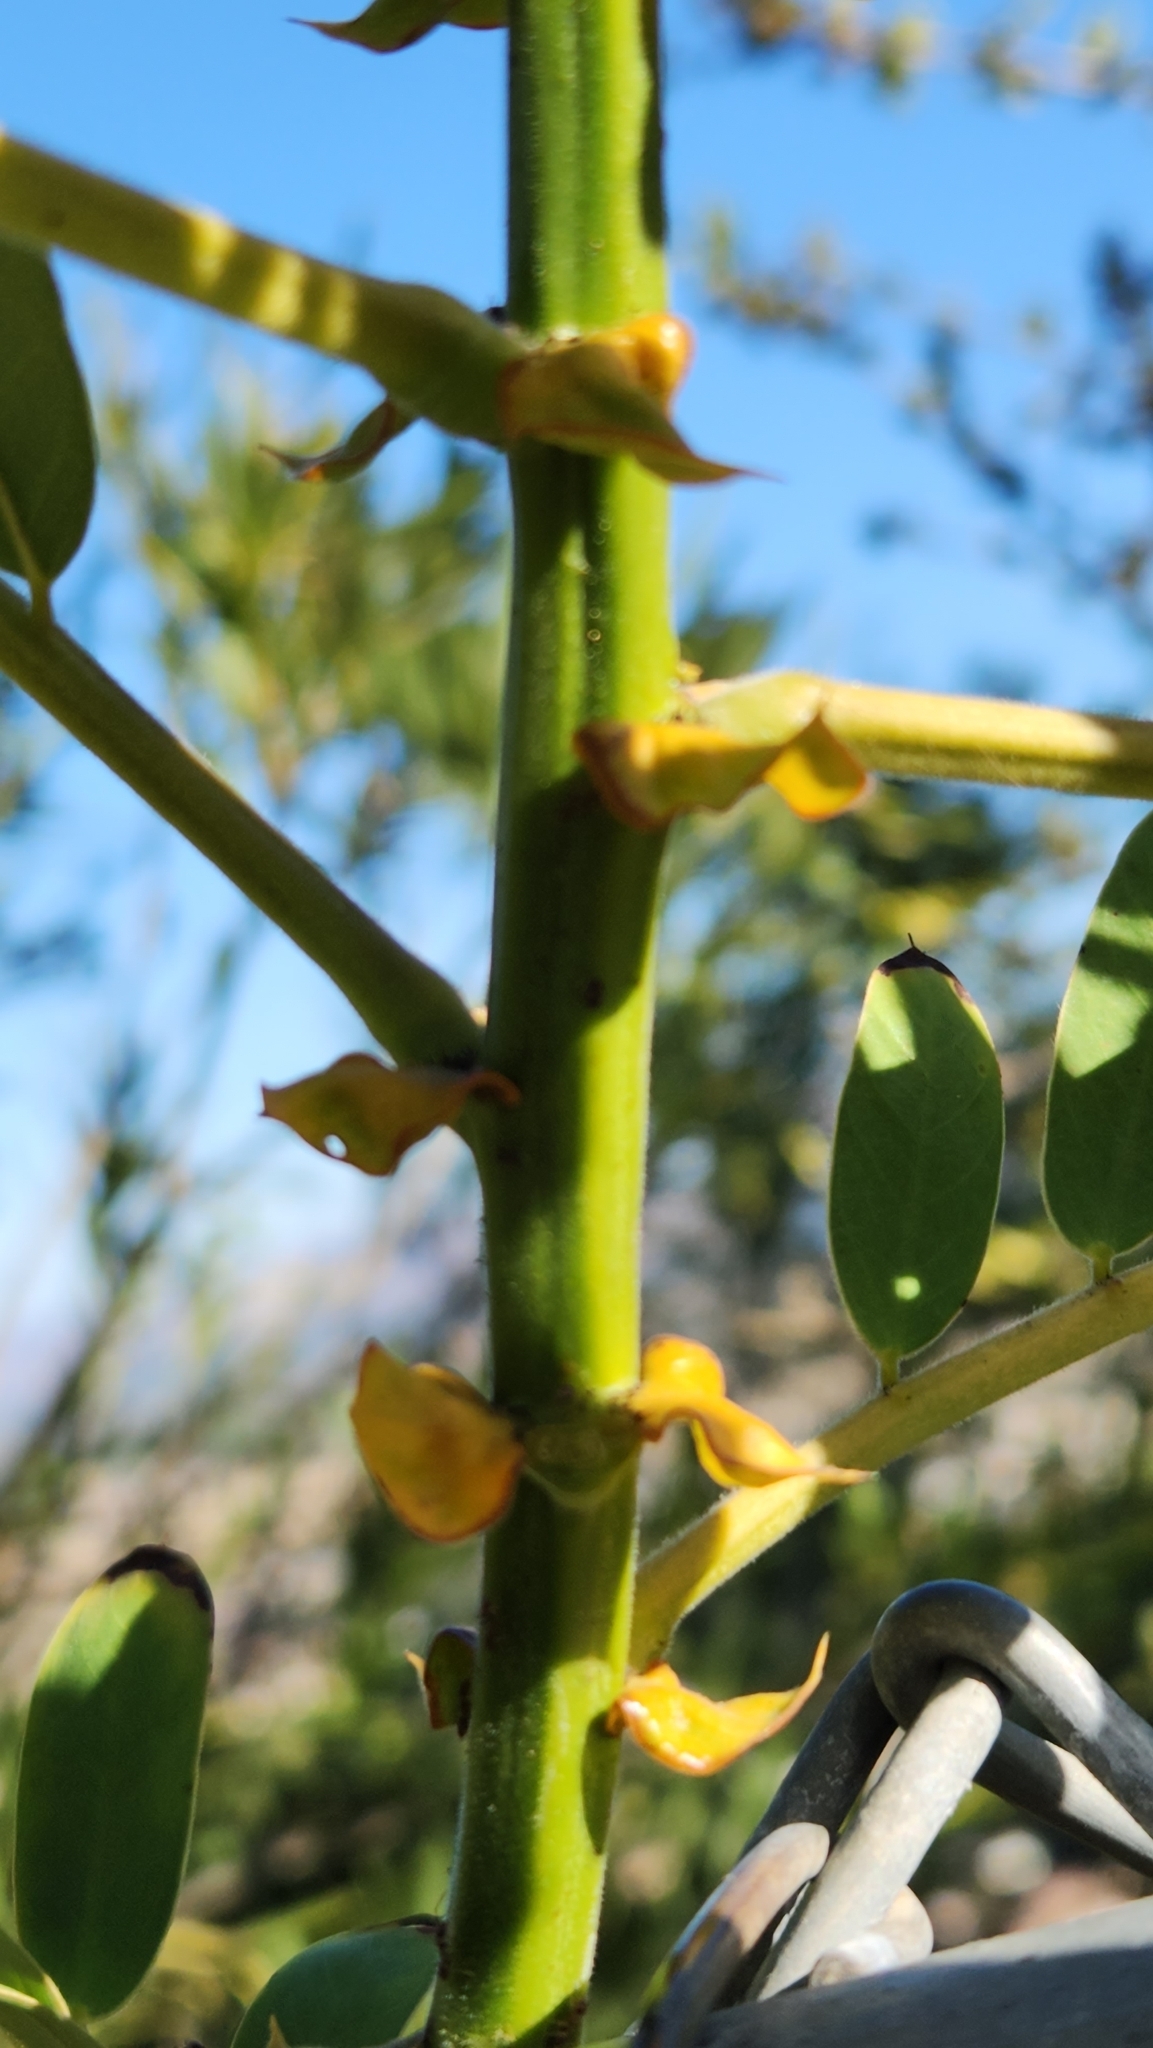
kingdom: Plantae
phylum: Tracheophyta
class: Magnoliopsida
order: Fabales
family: Fabaceae
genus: Senna
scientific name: Senna didymobotrya
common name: African senna
